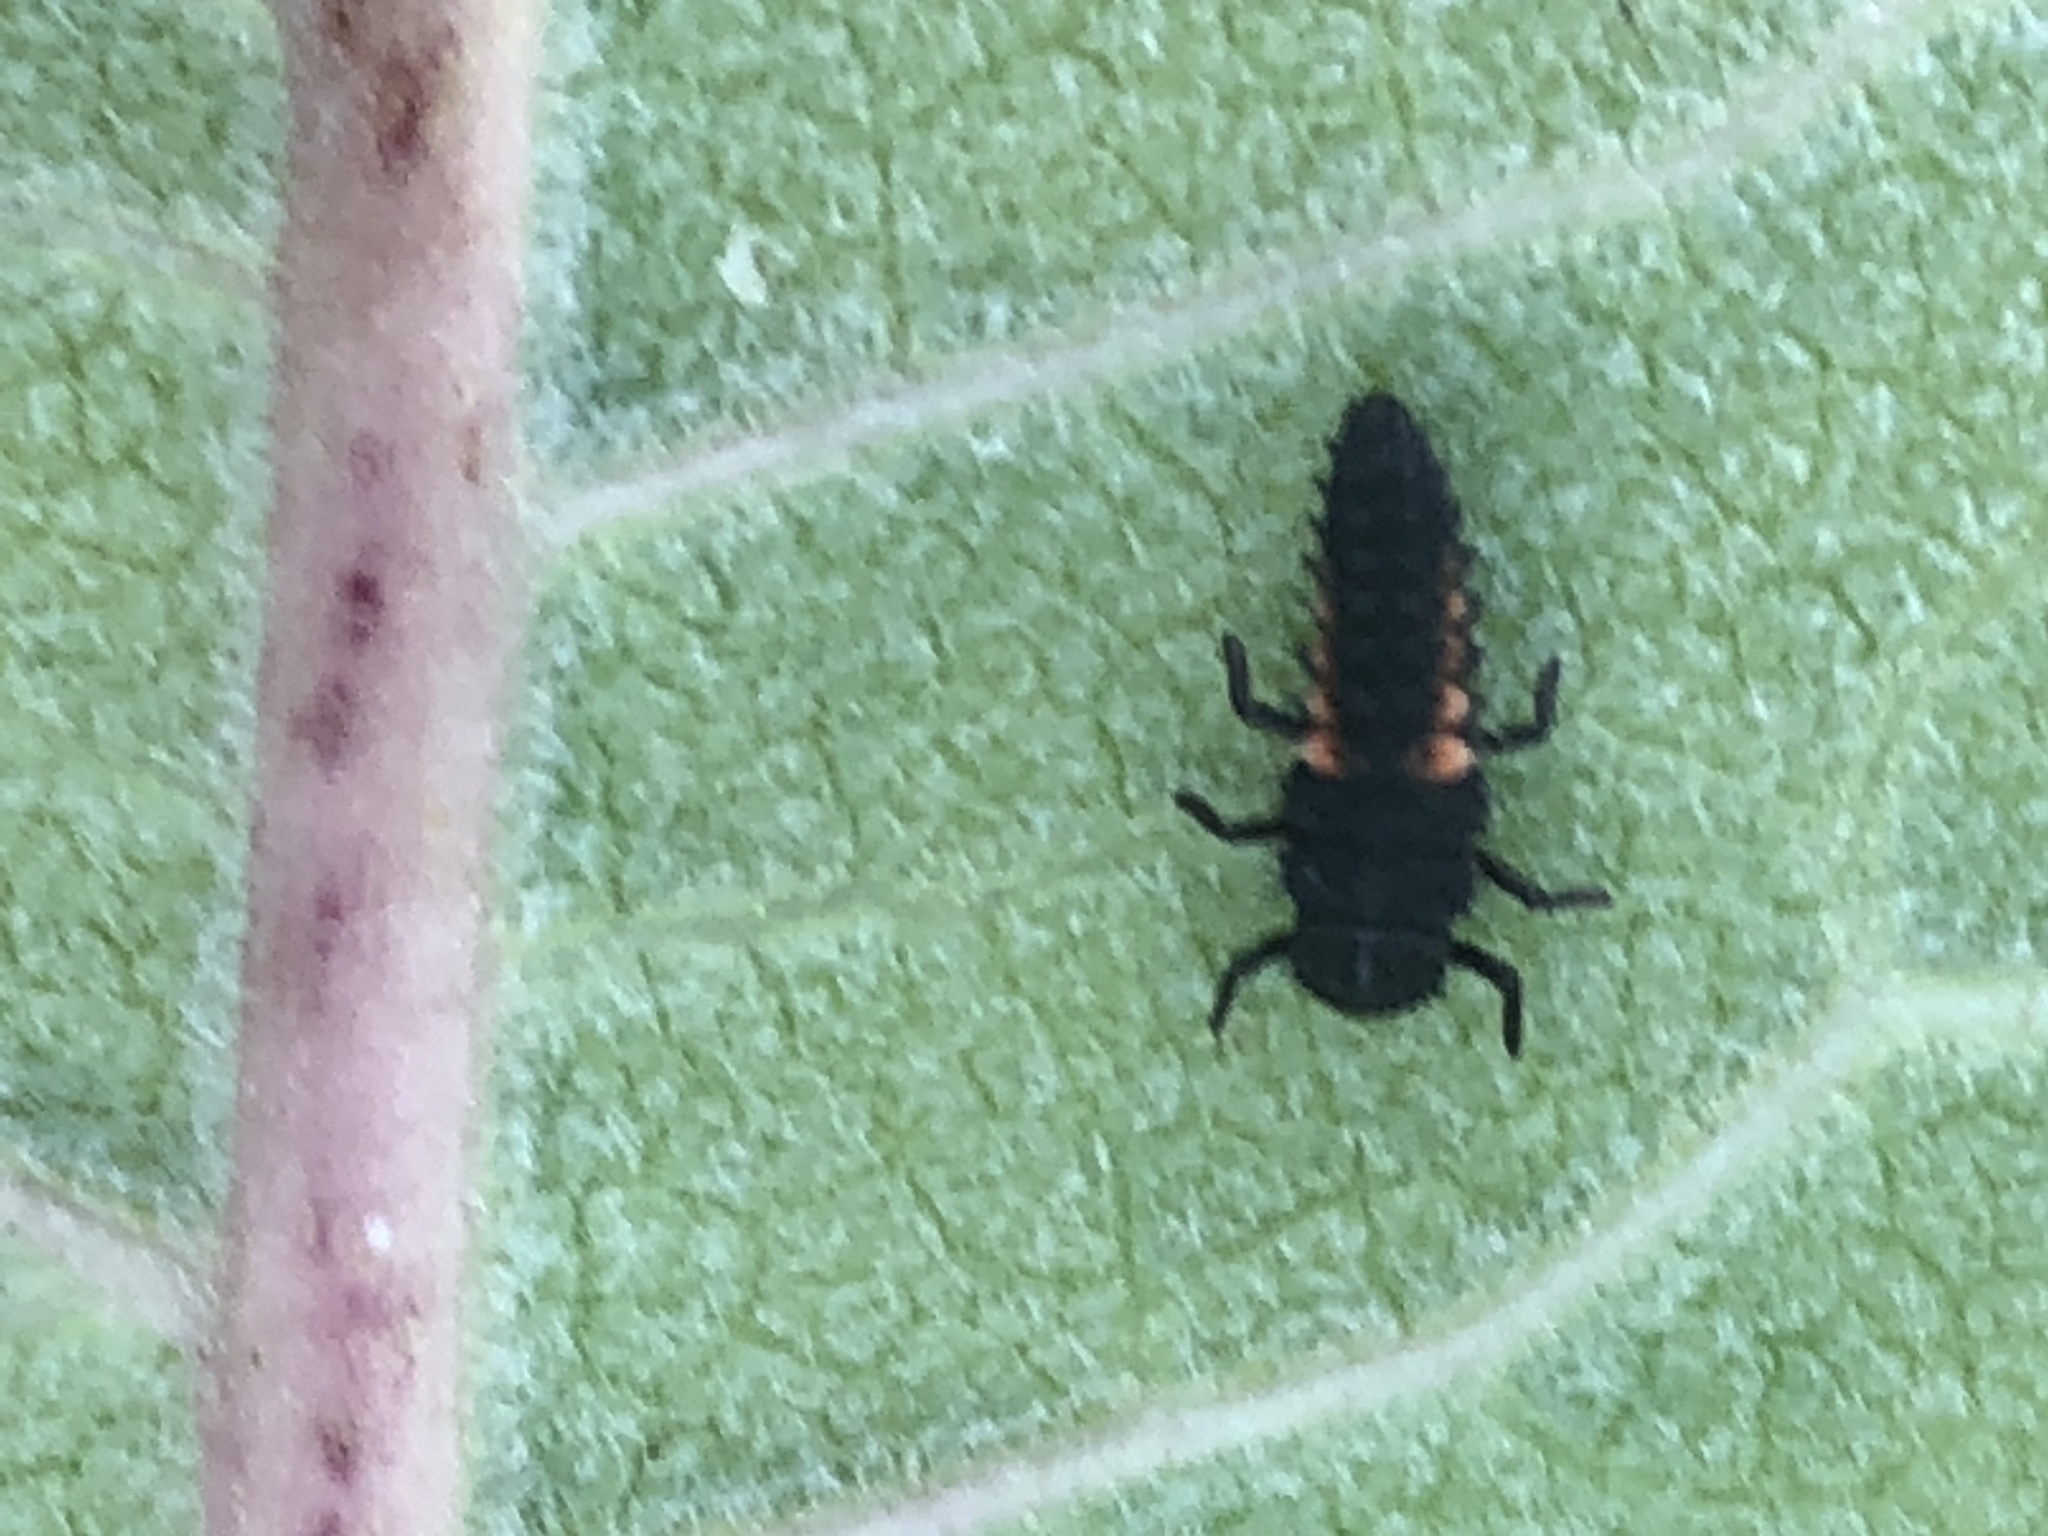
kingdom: Animalia
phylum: Arthropoda
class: Insecta
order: Coleoptera
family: Coccinellidae
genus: Harmonia
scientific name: Harmonia axyridis
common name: Harlequin ladybird
